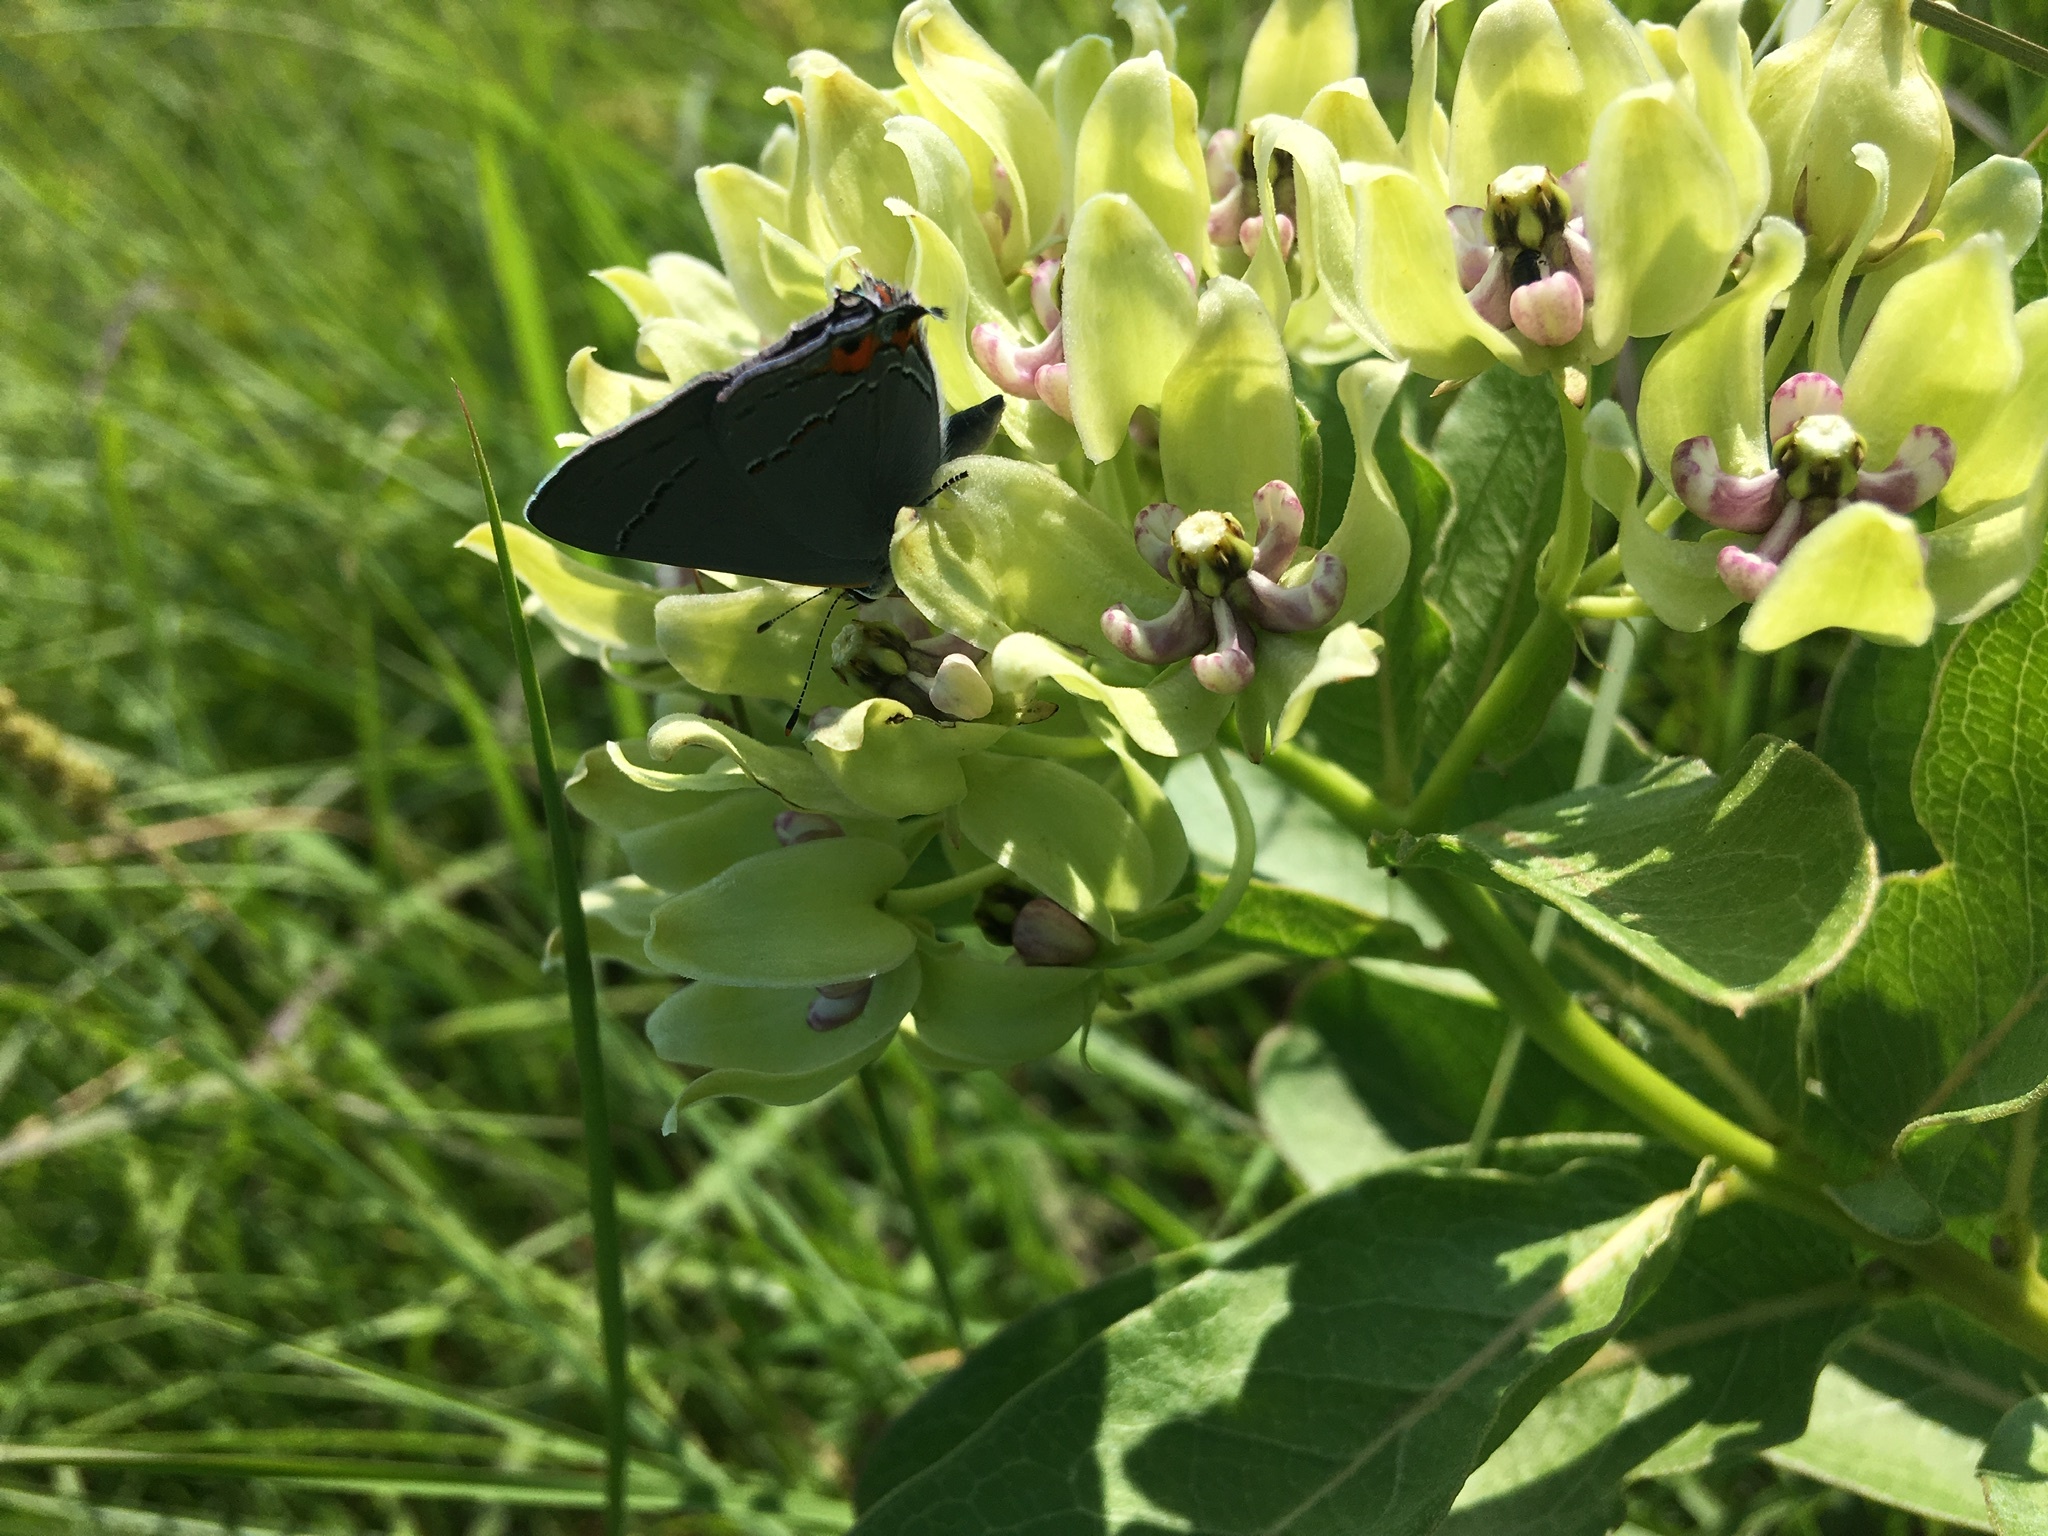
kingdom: Animalia
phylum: Arthropoda
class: Insecta
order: Lepidoptera
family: Lycaenidae
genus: Strymon
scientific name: Strymon melinus
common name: Gray hairstreak
